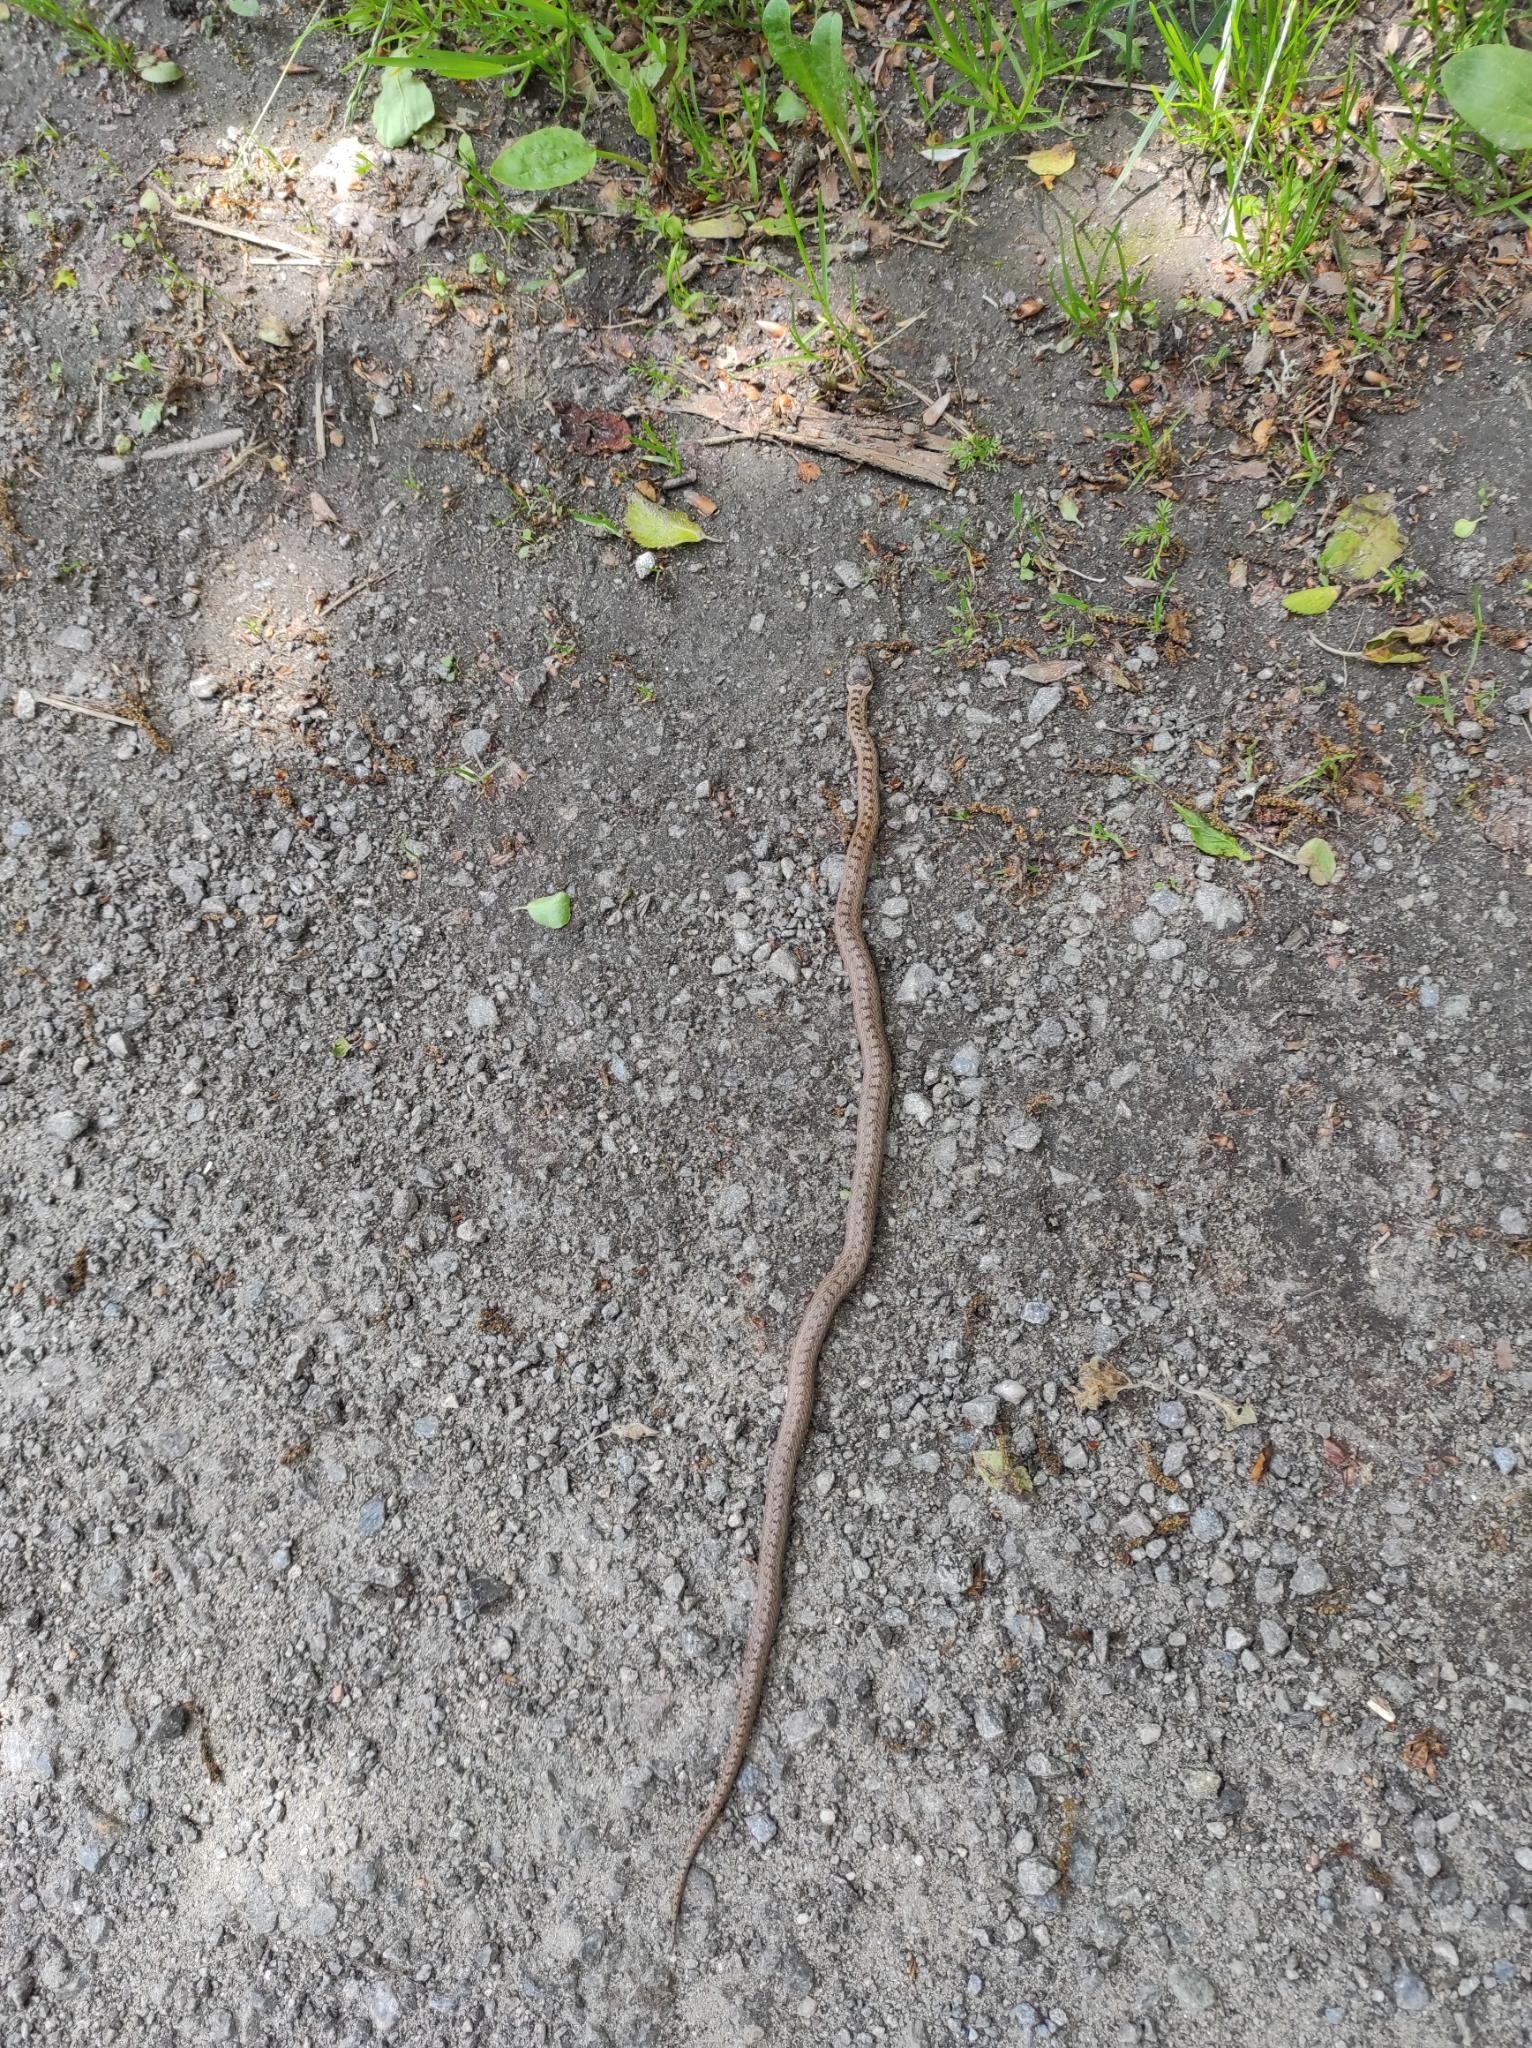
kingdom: Animalia
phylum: Chordata
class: Squamata
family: Colubridae
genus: Coronella
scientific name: Coronella austriaca
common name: Smooth snake
